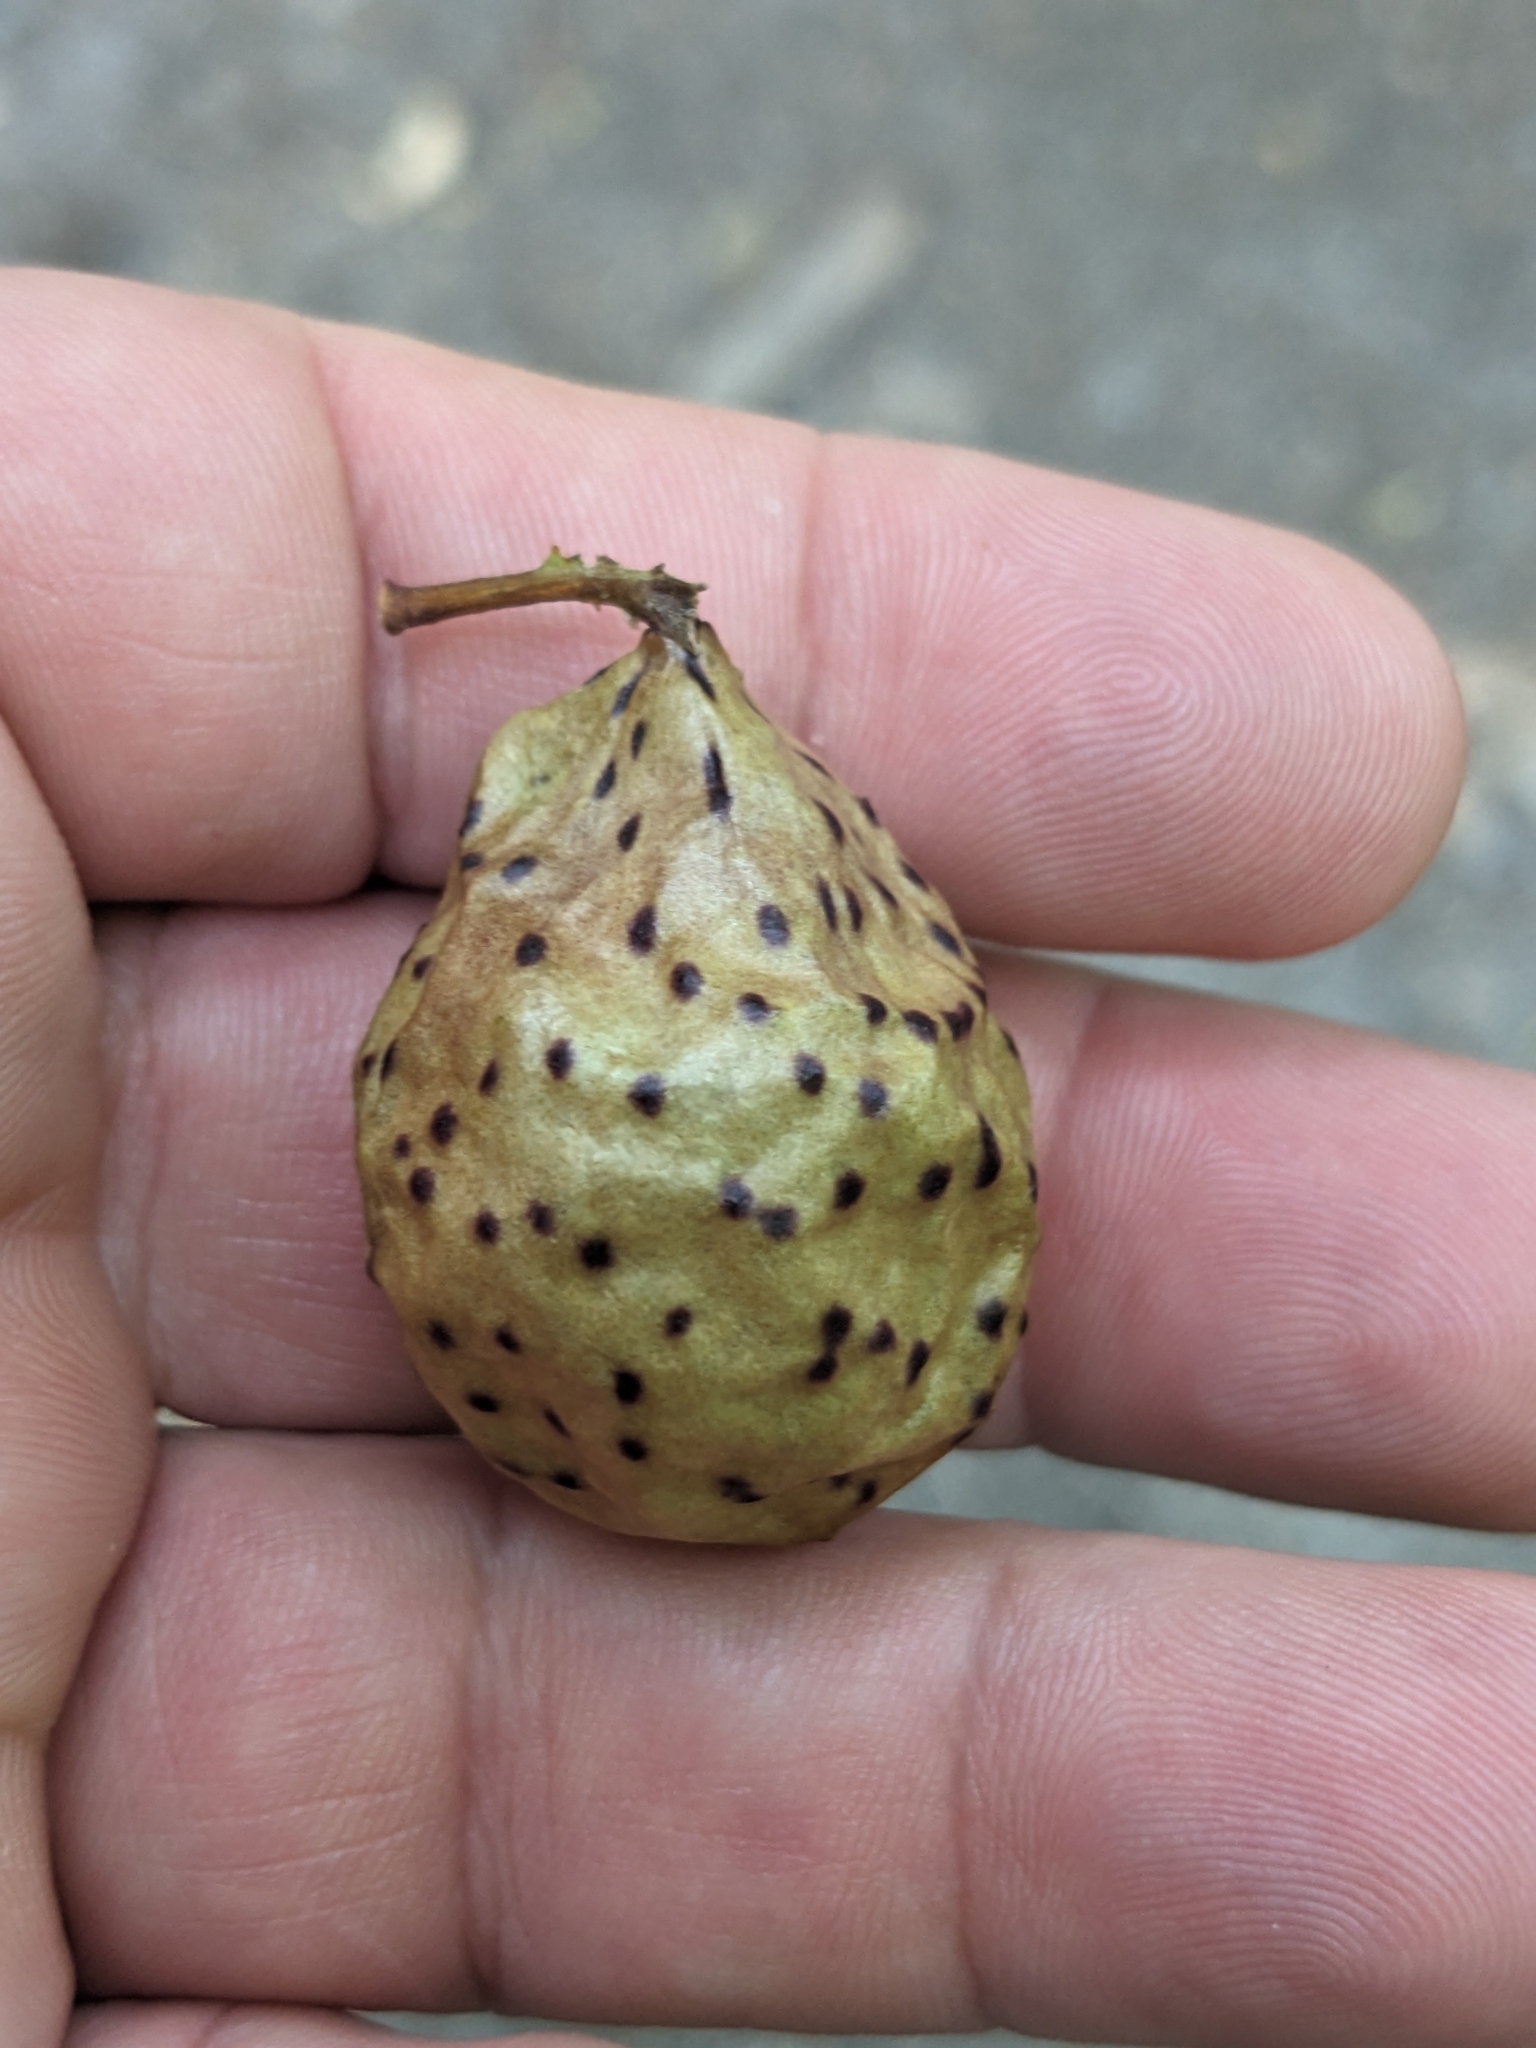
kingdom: Animalia
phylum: Arthropoda
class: Insecta
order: Hymenoptera
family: Cynipidae
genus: Amphibolips
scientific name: Amphibolips
